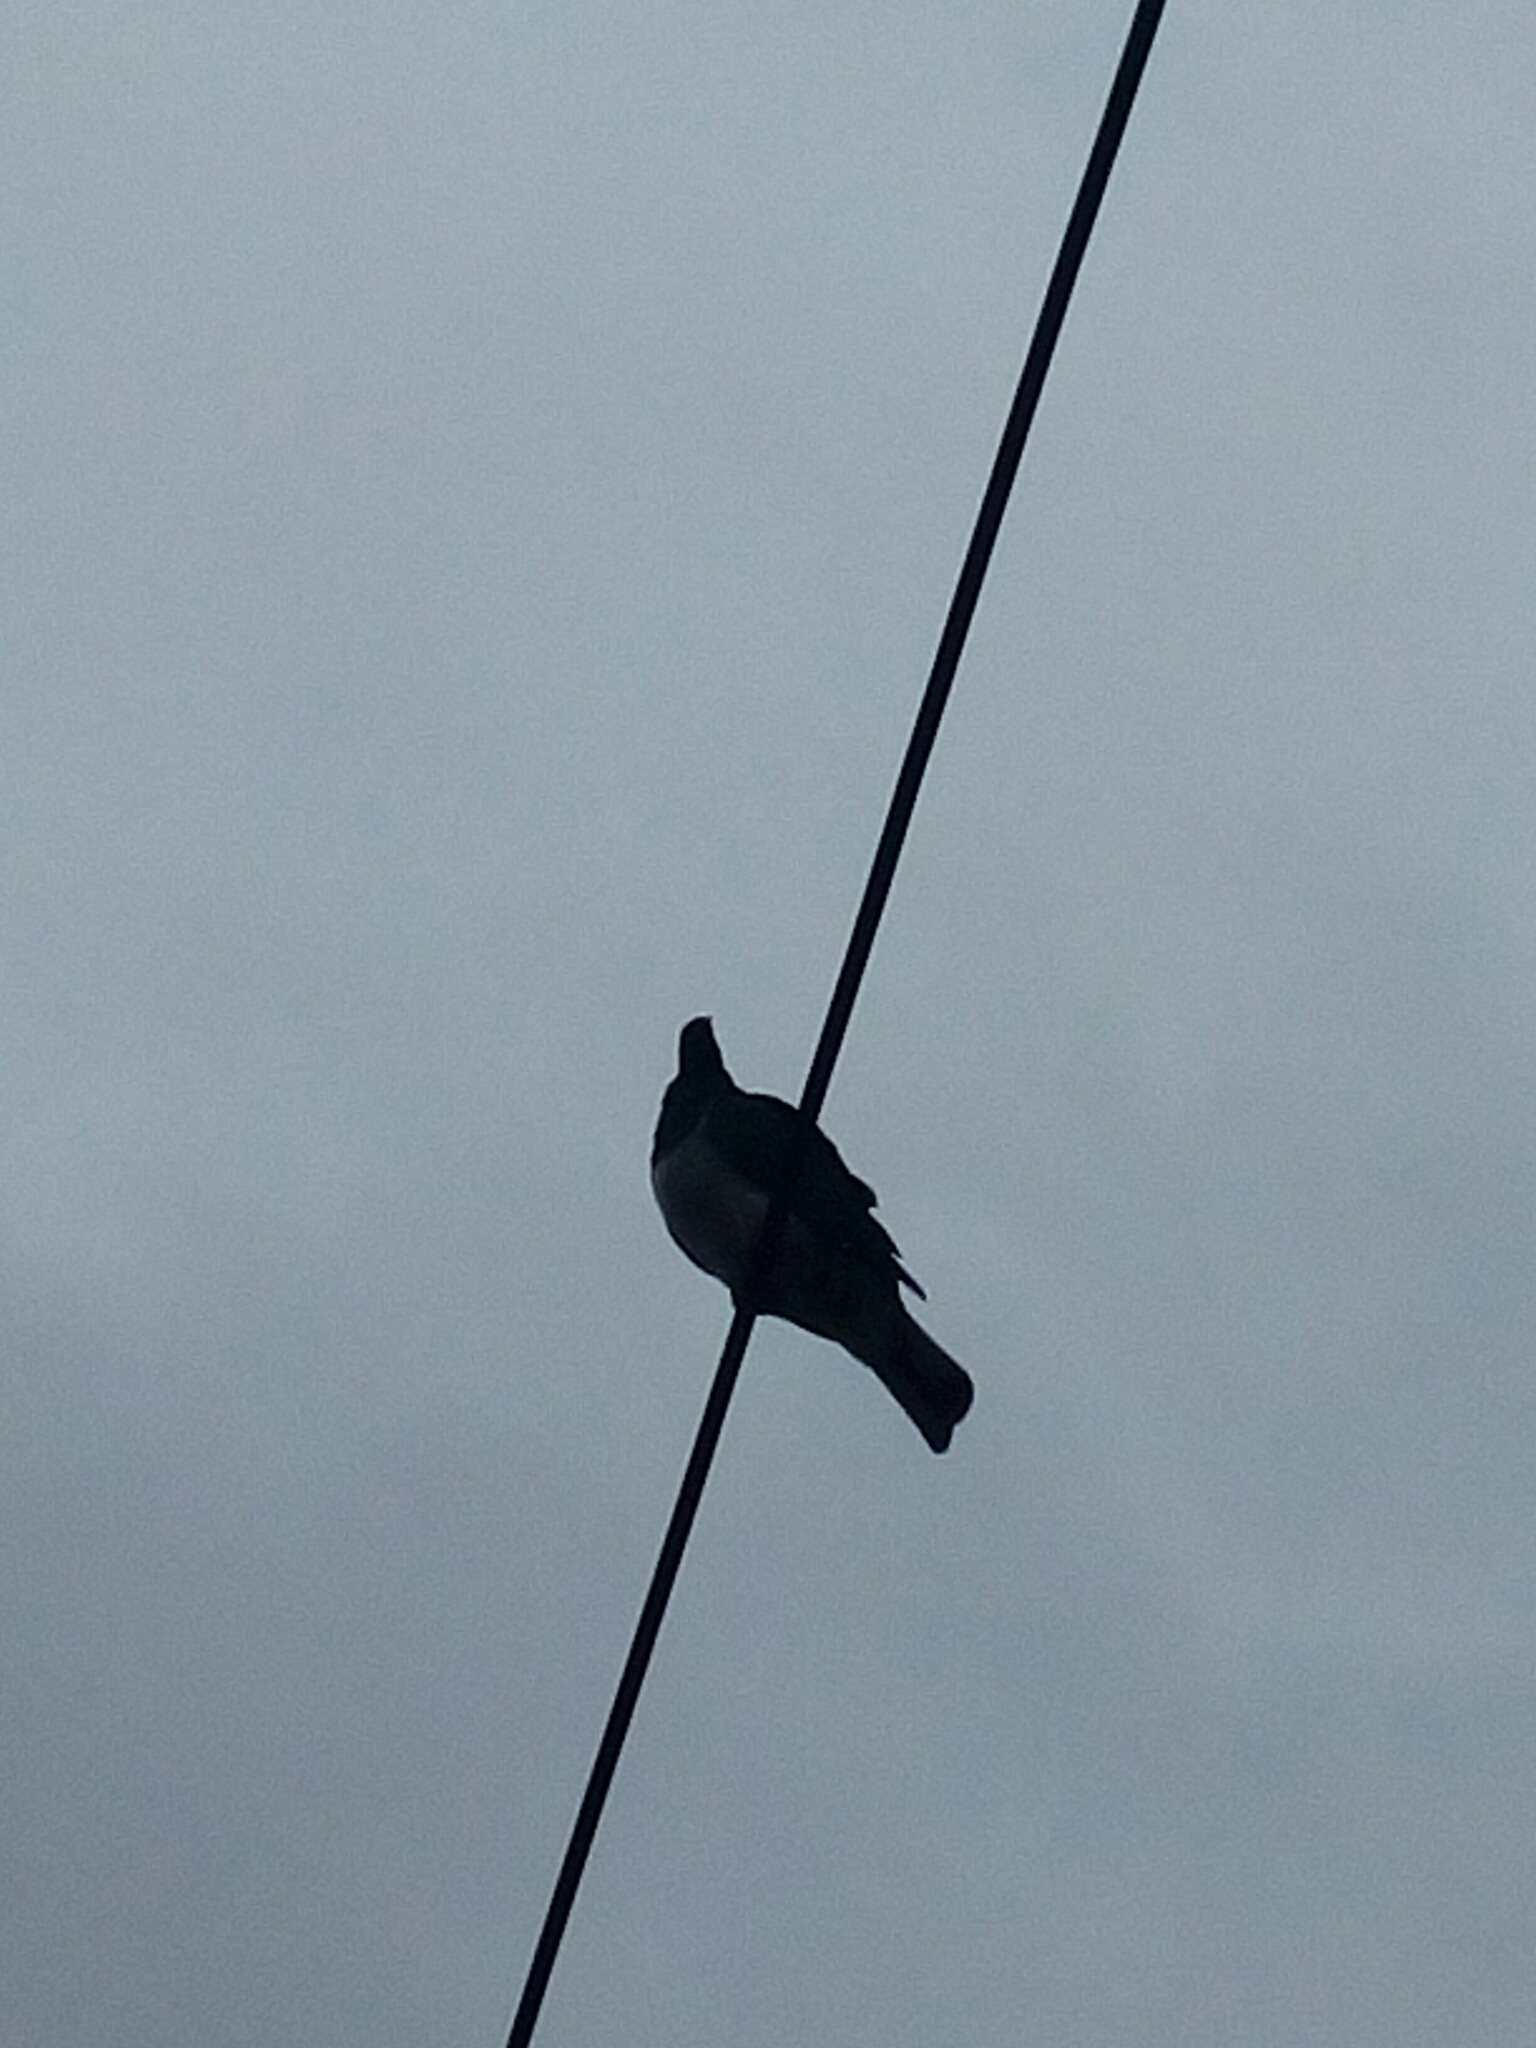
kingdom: Animalia
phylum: Chordata
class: Aves
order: Columbiformes
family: Columbidae
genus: Hemiphaga
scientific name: Hemiphaga novaeseelandiae
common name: New zealand pigeon
